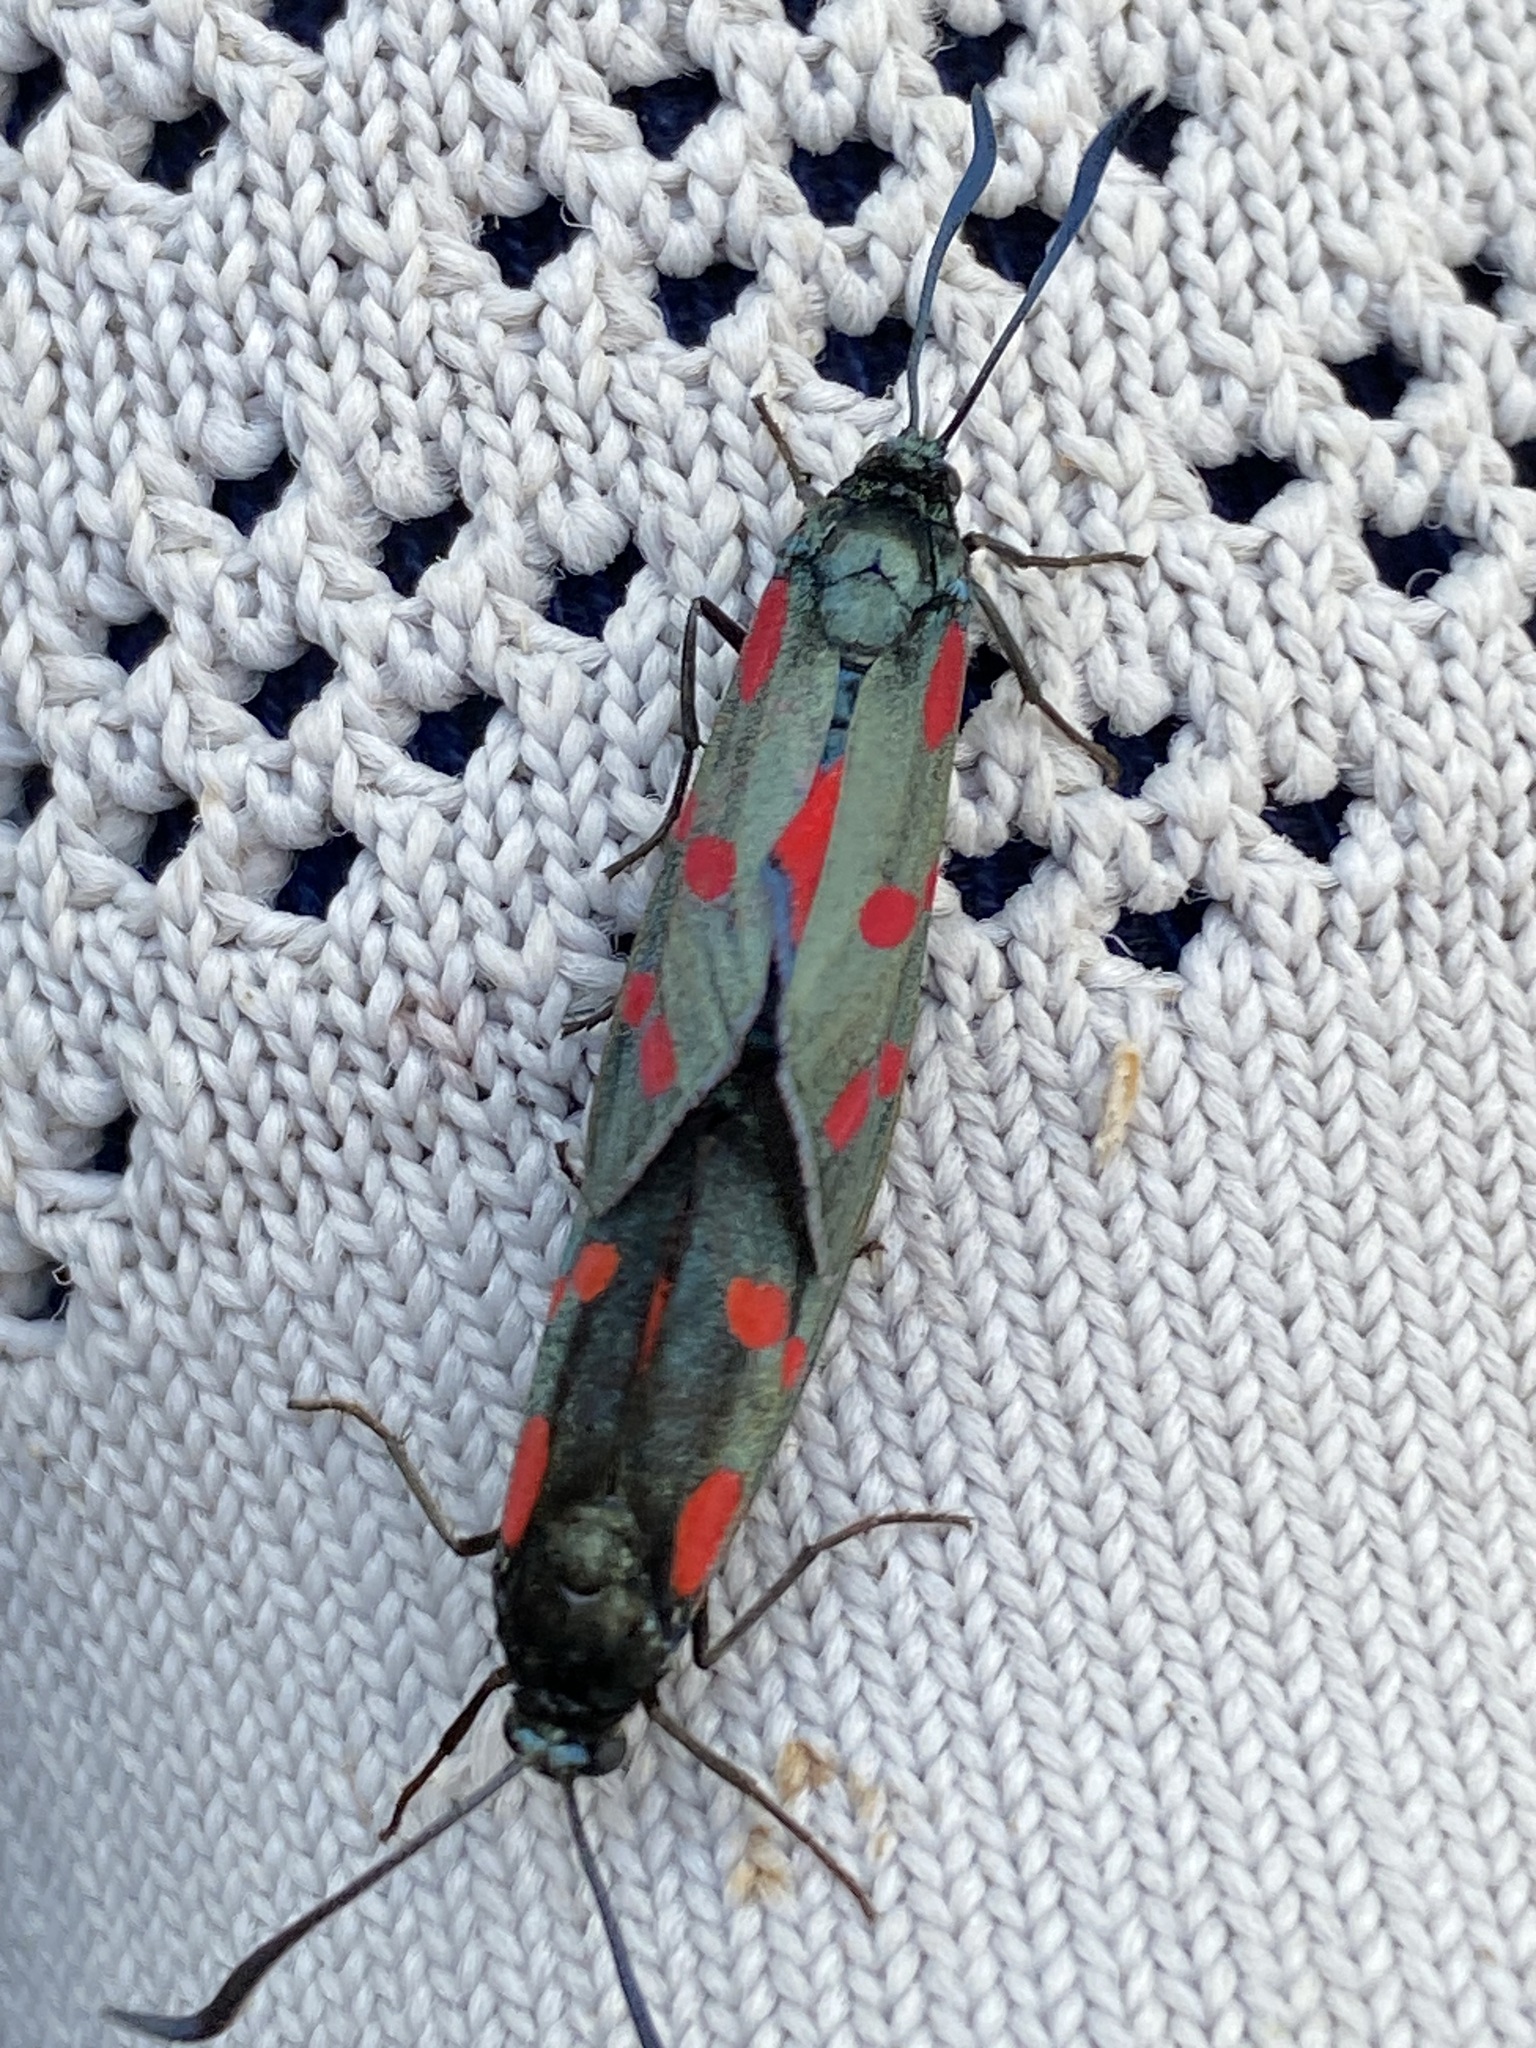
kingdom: Animalia
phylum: Arthropoda
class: Insecta
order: Lepidoptera
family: Zygaenidae
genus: Zygaena
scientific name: Zygaena filipendulae
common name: Six-spot burnet
